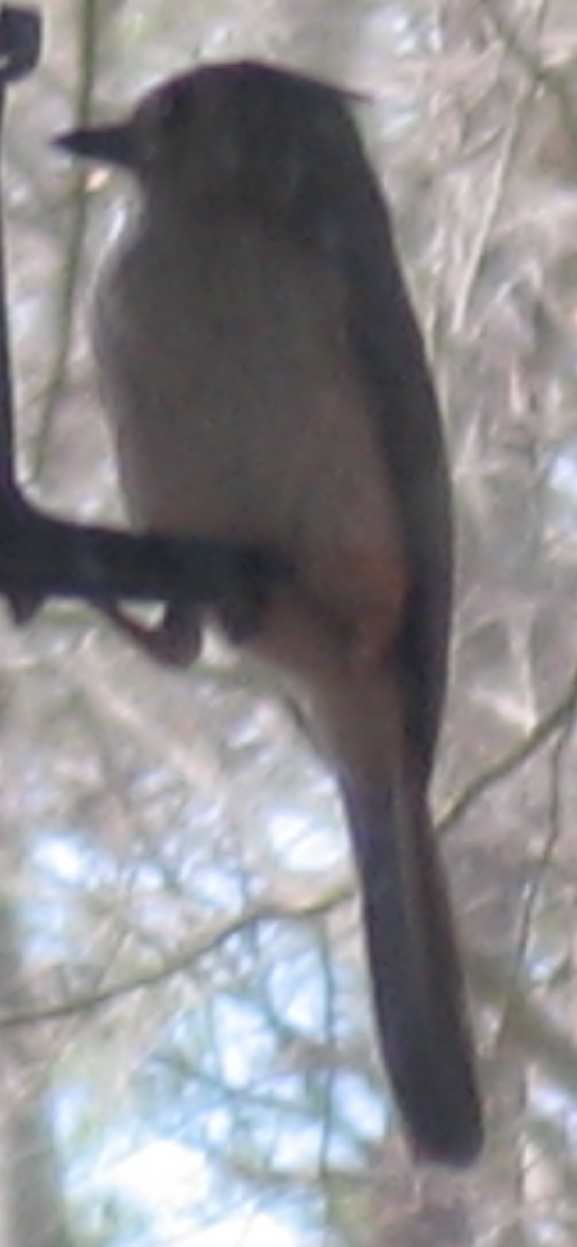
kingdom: Animalia
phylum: Chordata
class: Aves
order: Passeriformes
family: Paridae
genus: Baeolophus
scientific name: Baeolophus bicolor
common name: Tufted titmouse
